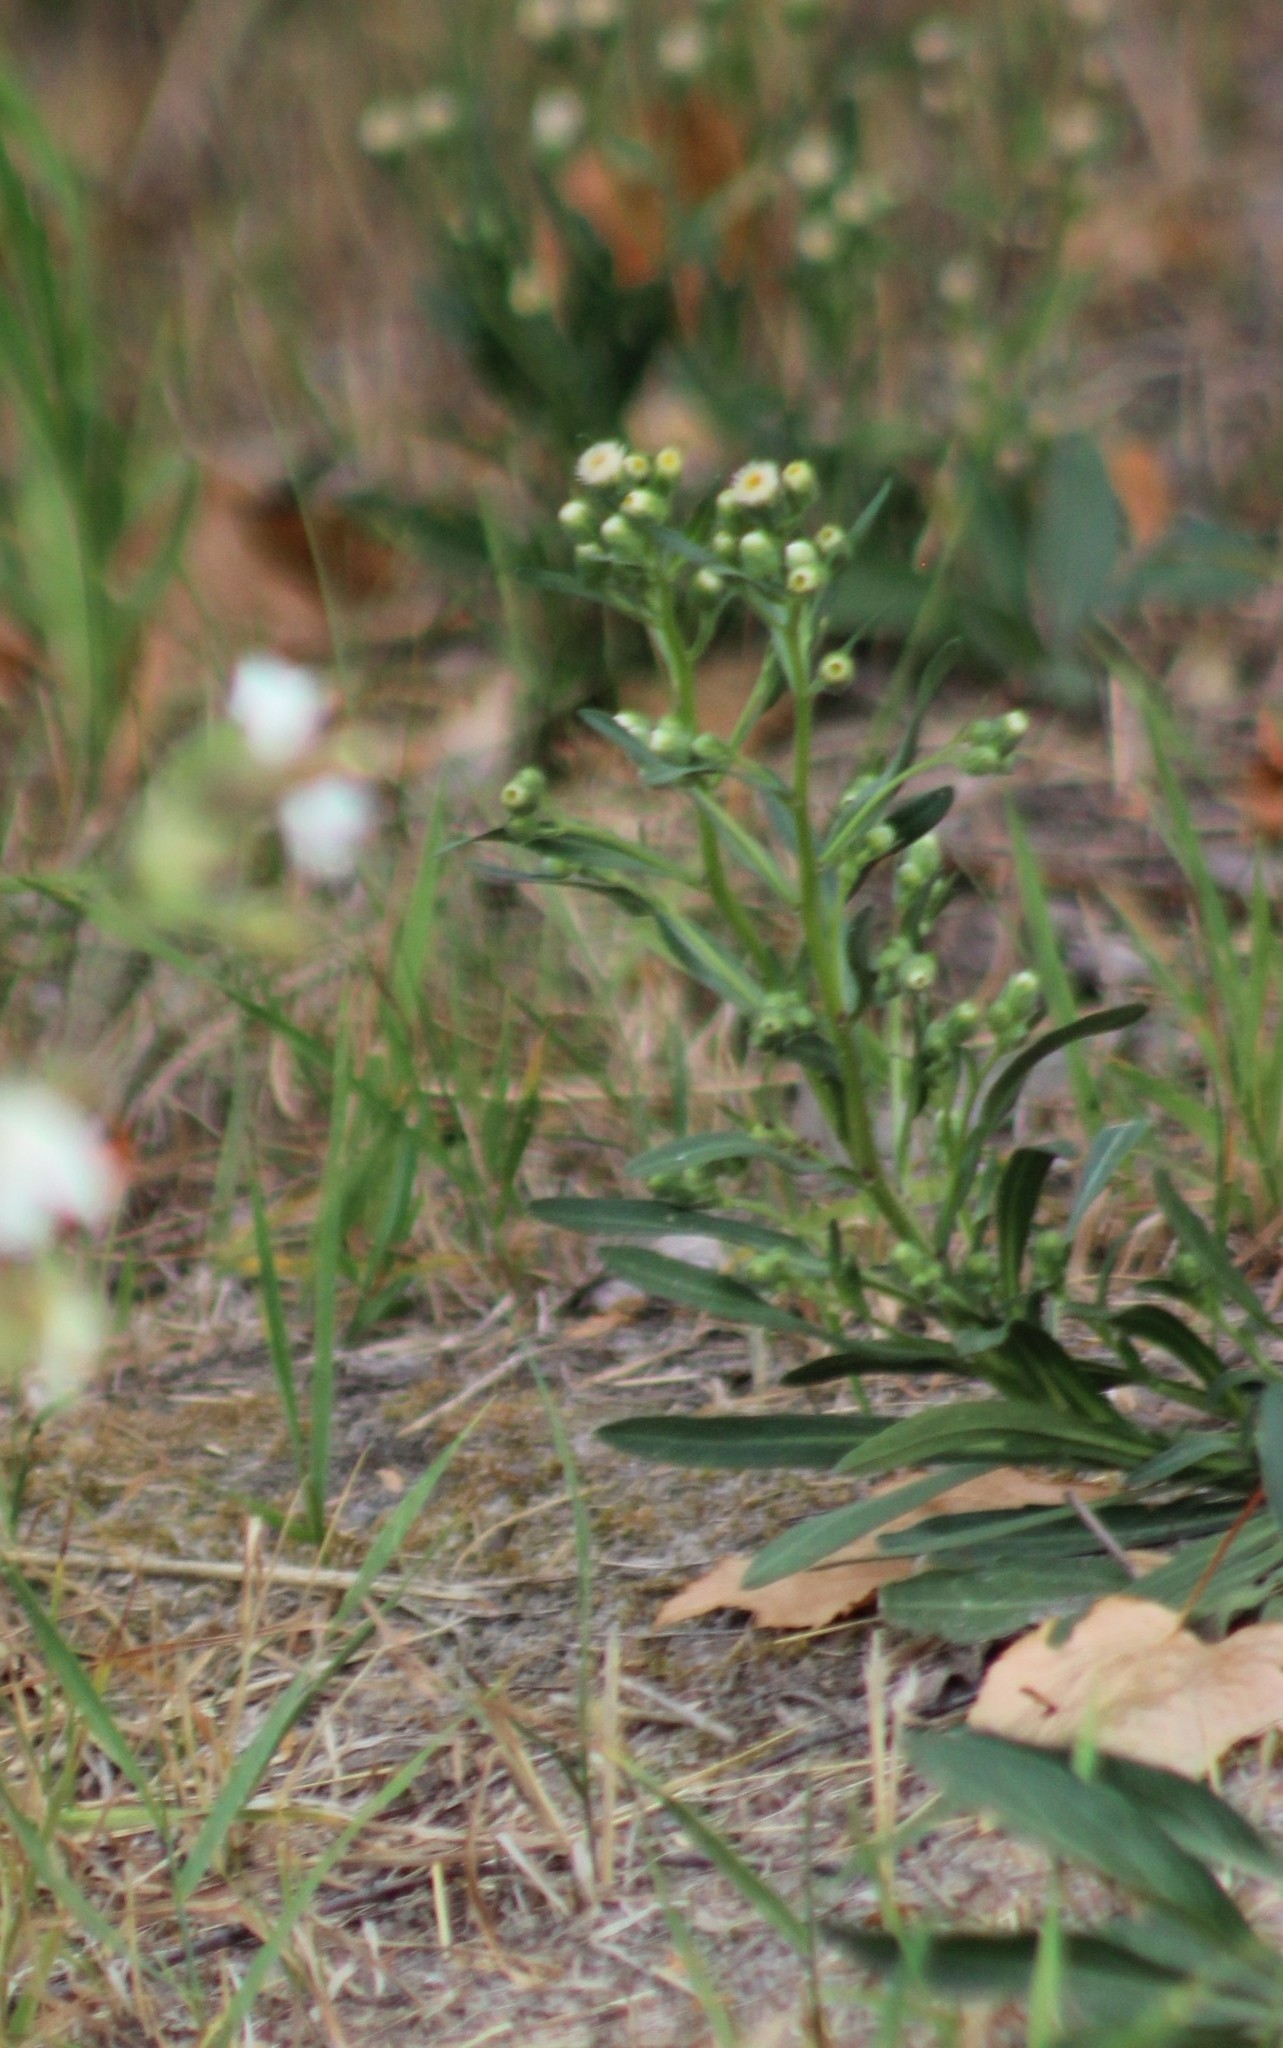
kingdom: Plantae
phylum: Tracheophyta
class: Magnoliopsida
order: Asterales
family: Asteraceae
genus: Erigeron
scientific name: Erigeron
